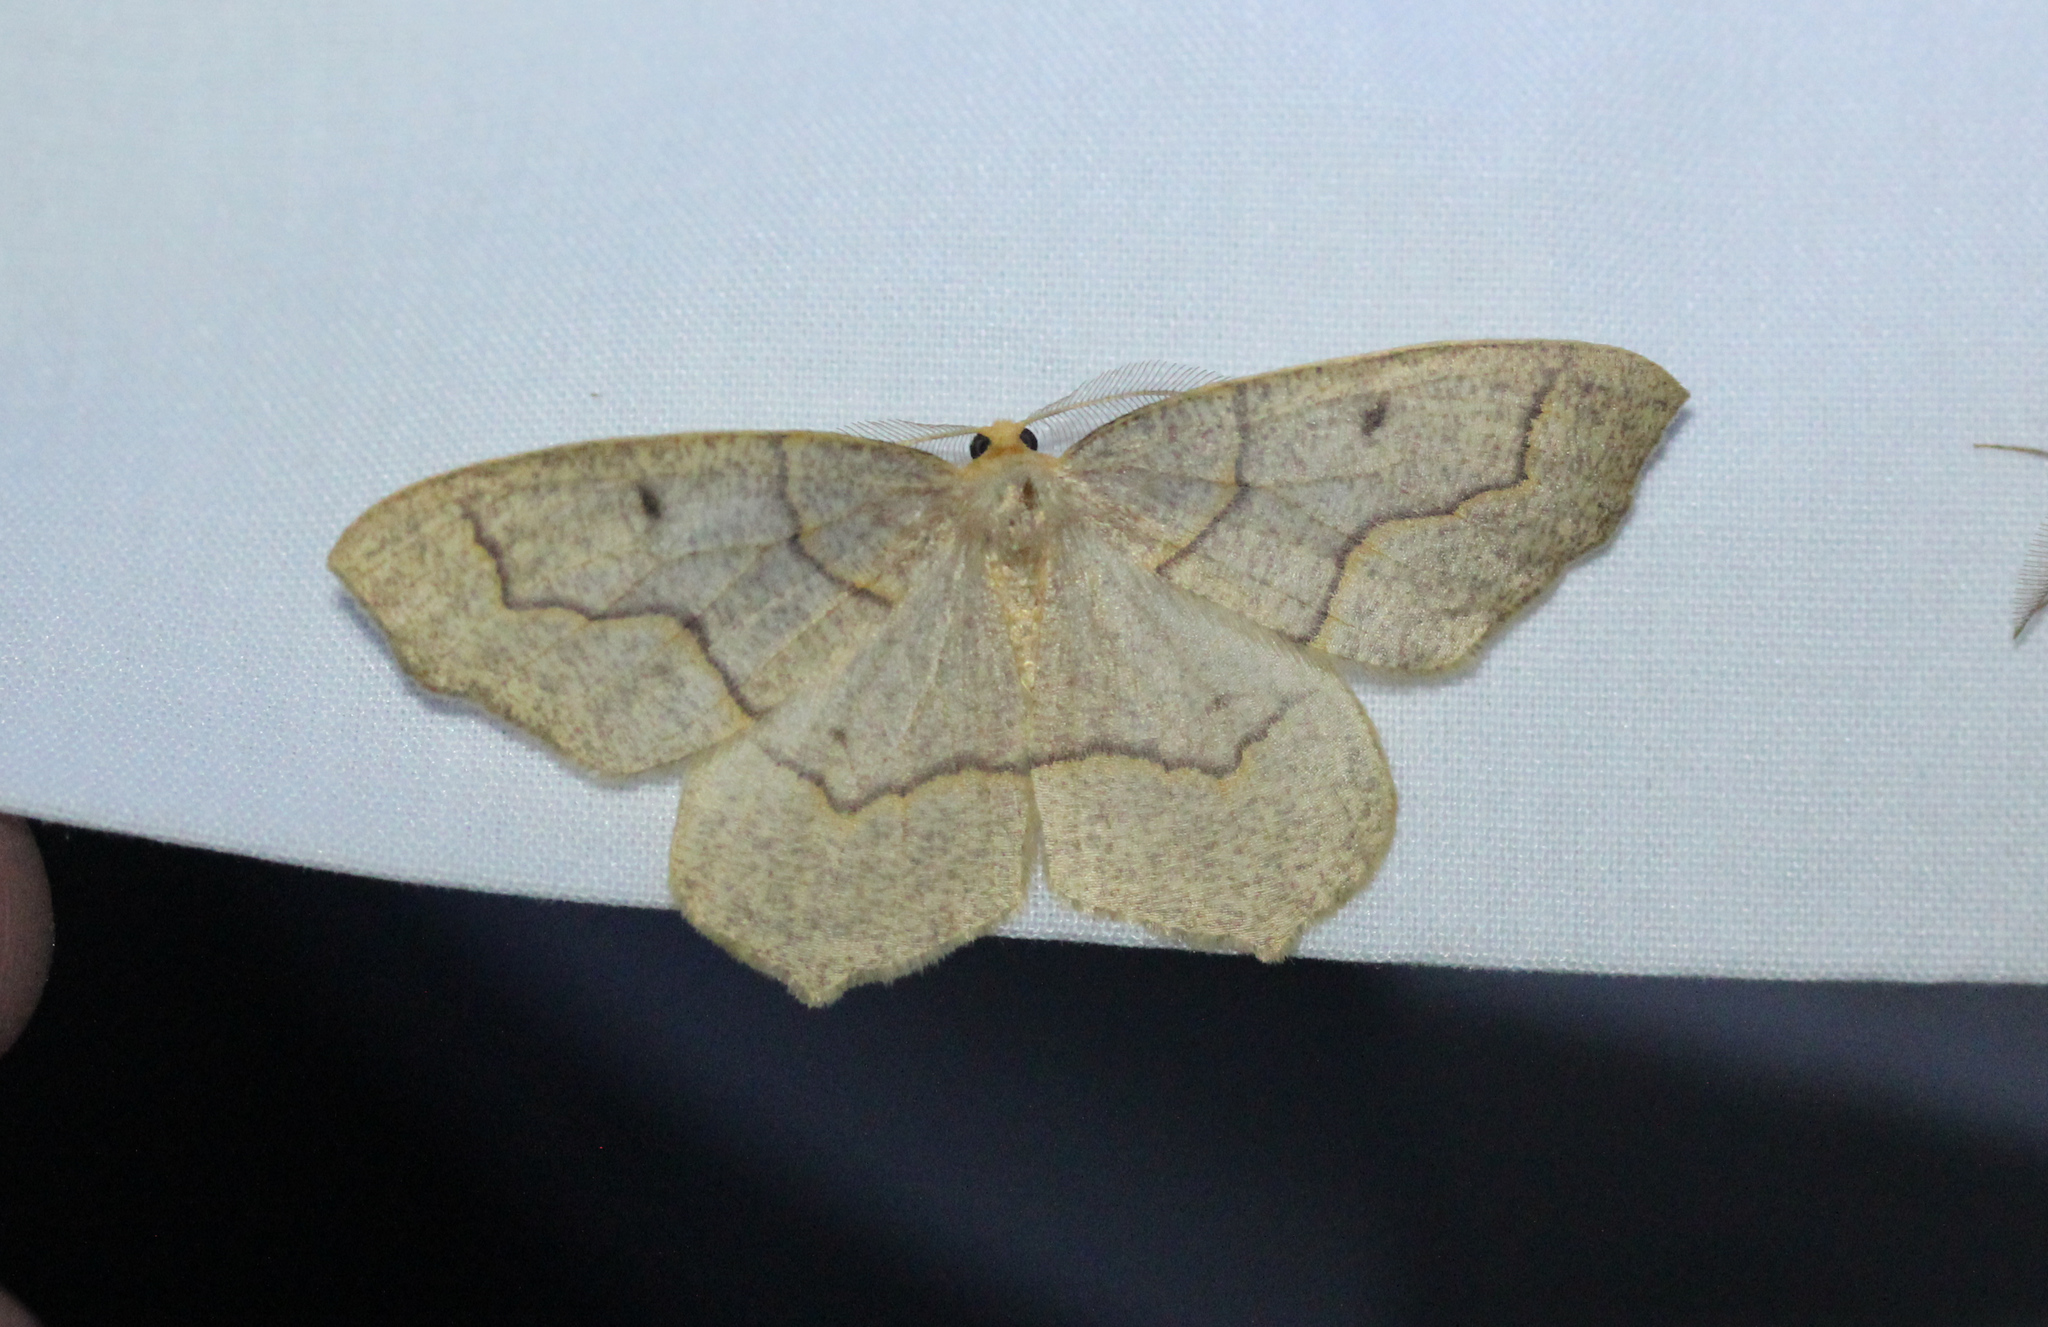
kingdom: Animalia
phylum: Arthropoda
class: Insecta
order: Lepidoptera
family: Geometridae
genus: Lambdina
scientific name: Lambdina fiscellaria
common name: Hemlock looper
